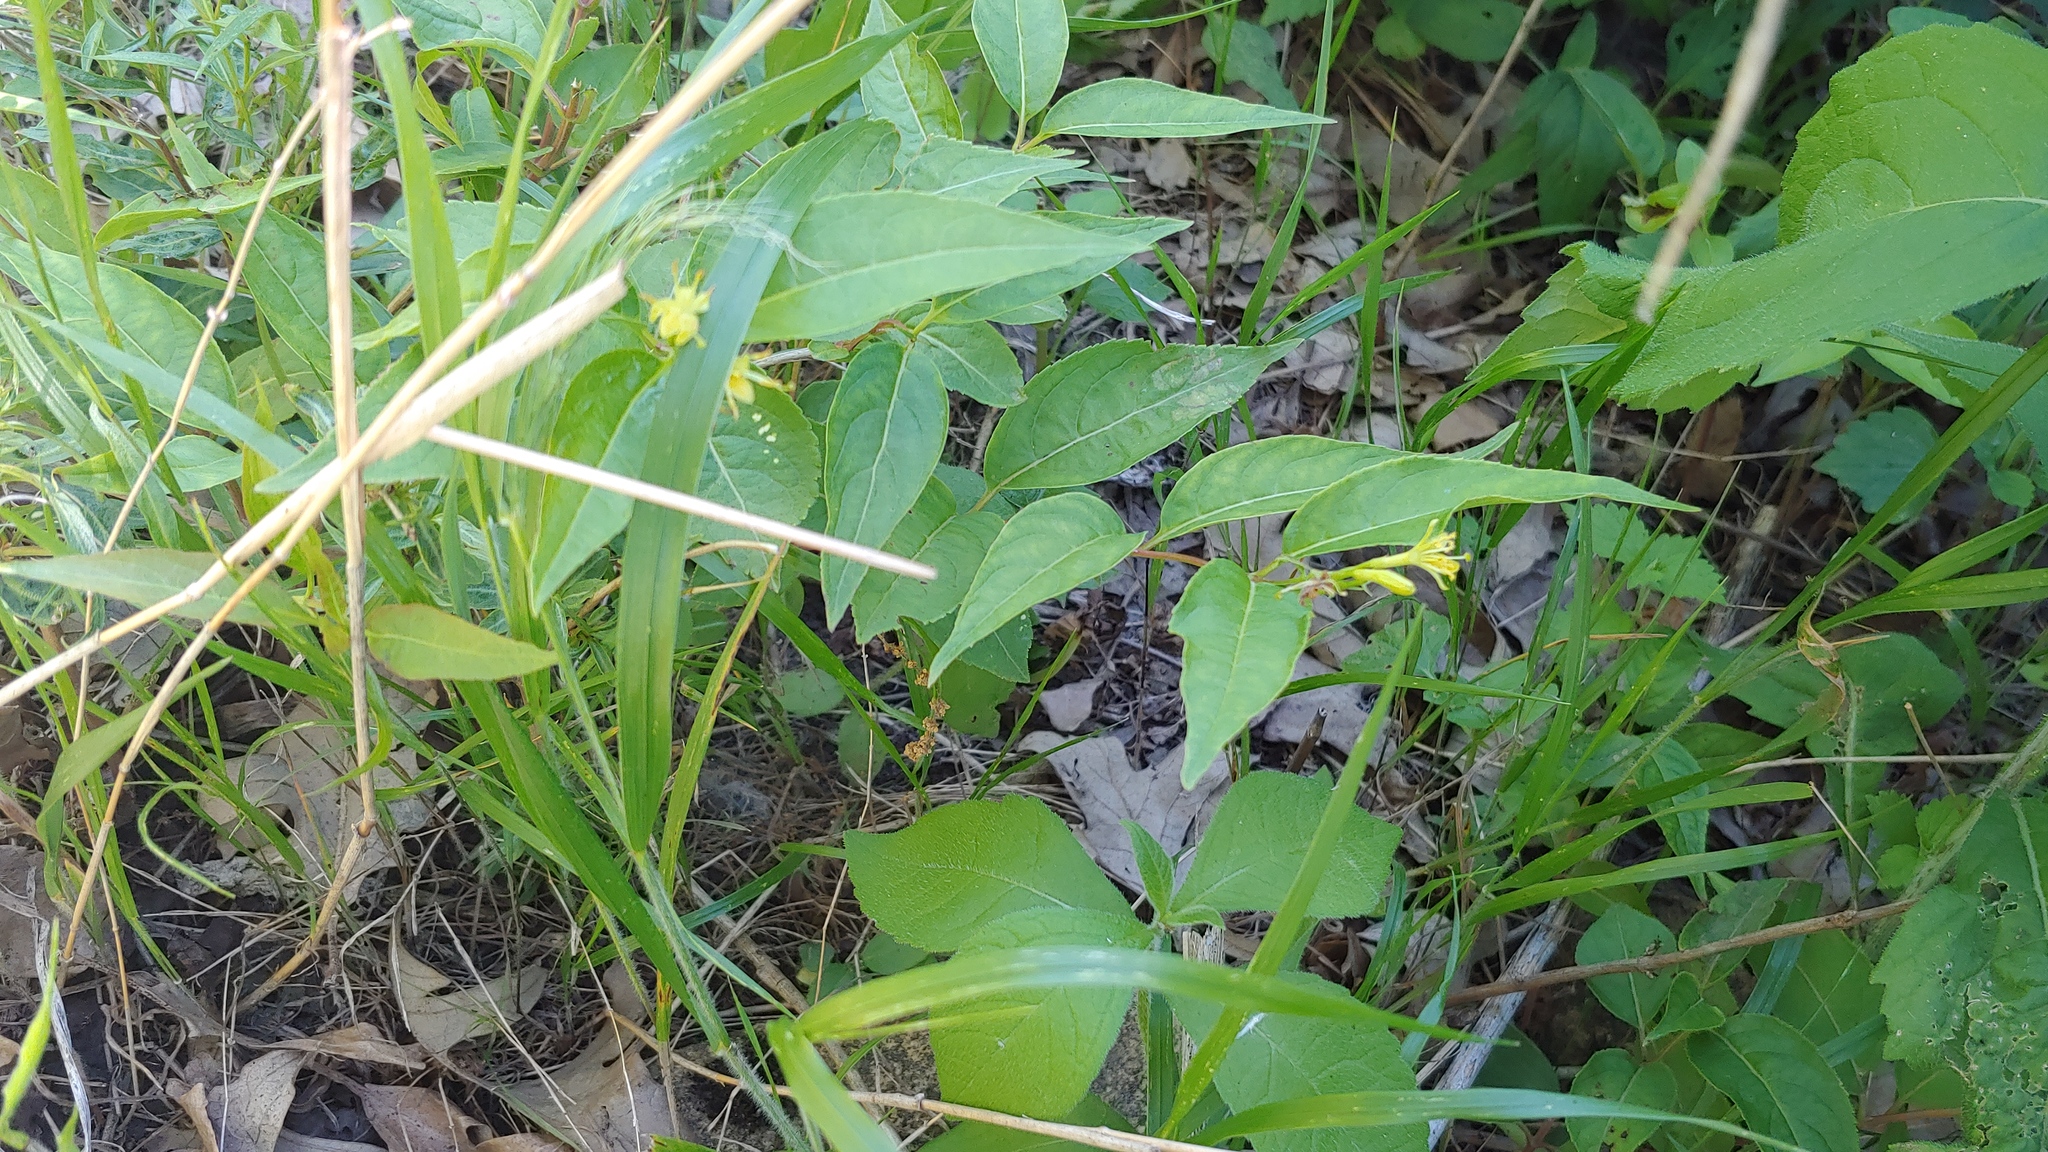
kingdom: Plantae
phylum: Tracheophyta
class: Magnoliopsida
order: Dipsacales
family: Caprifoliaceae
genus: Diervilla
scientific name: Diervilla lonicera
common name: Bush-honeysuckle
